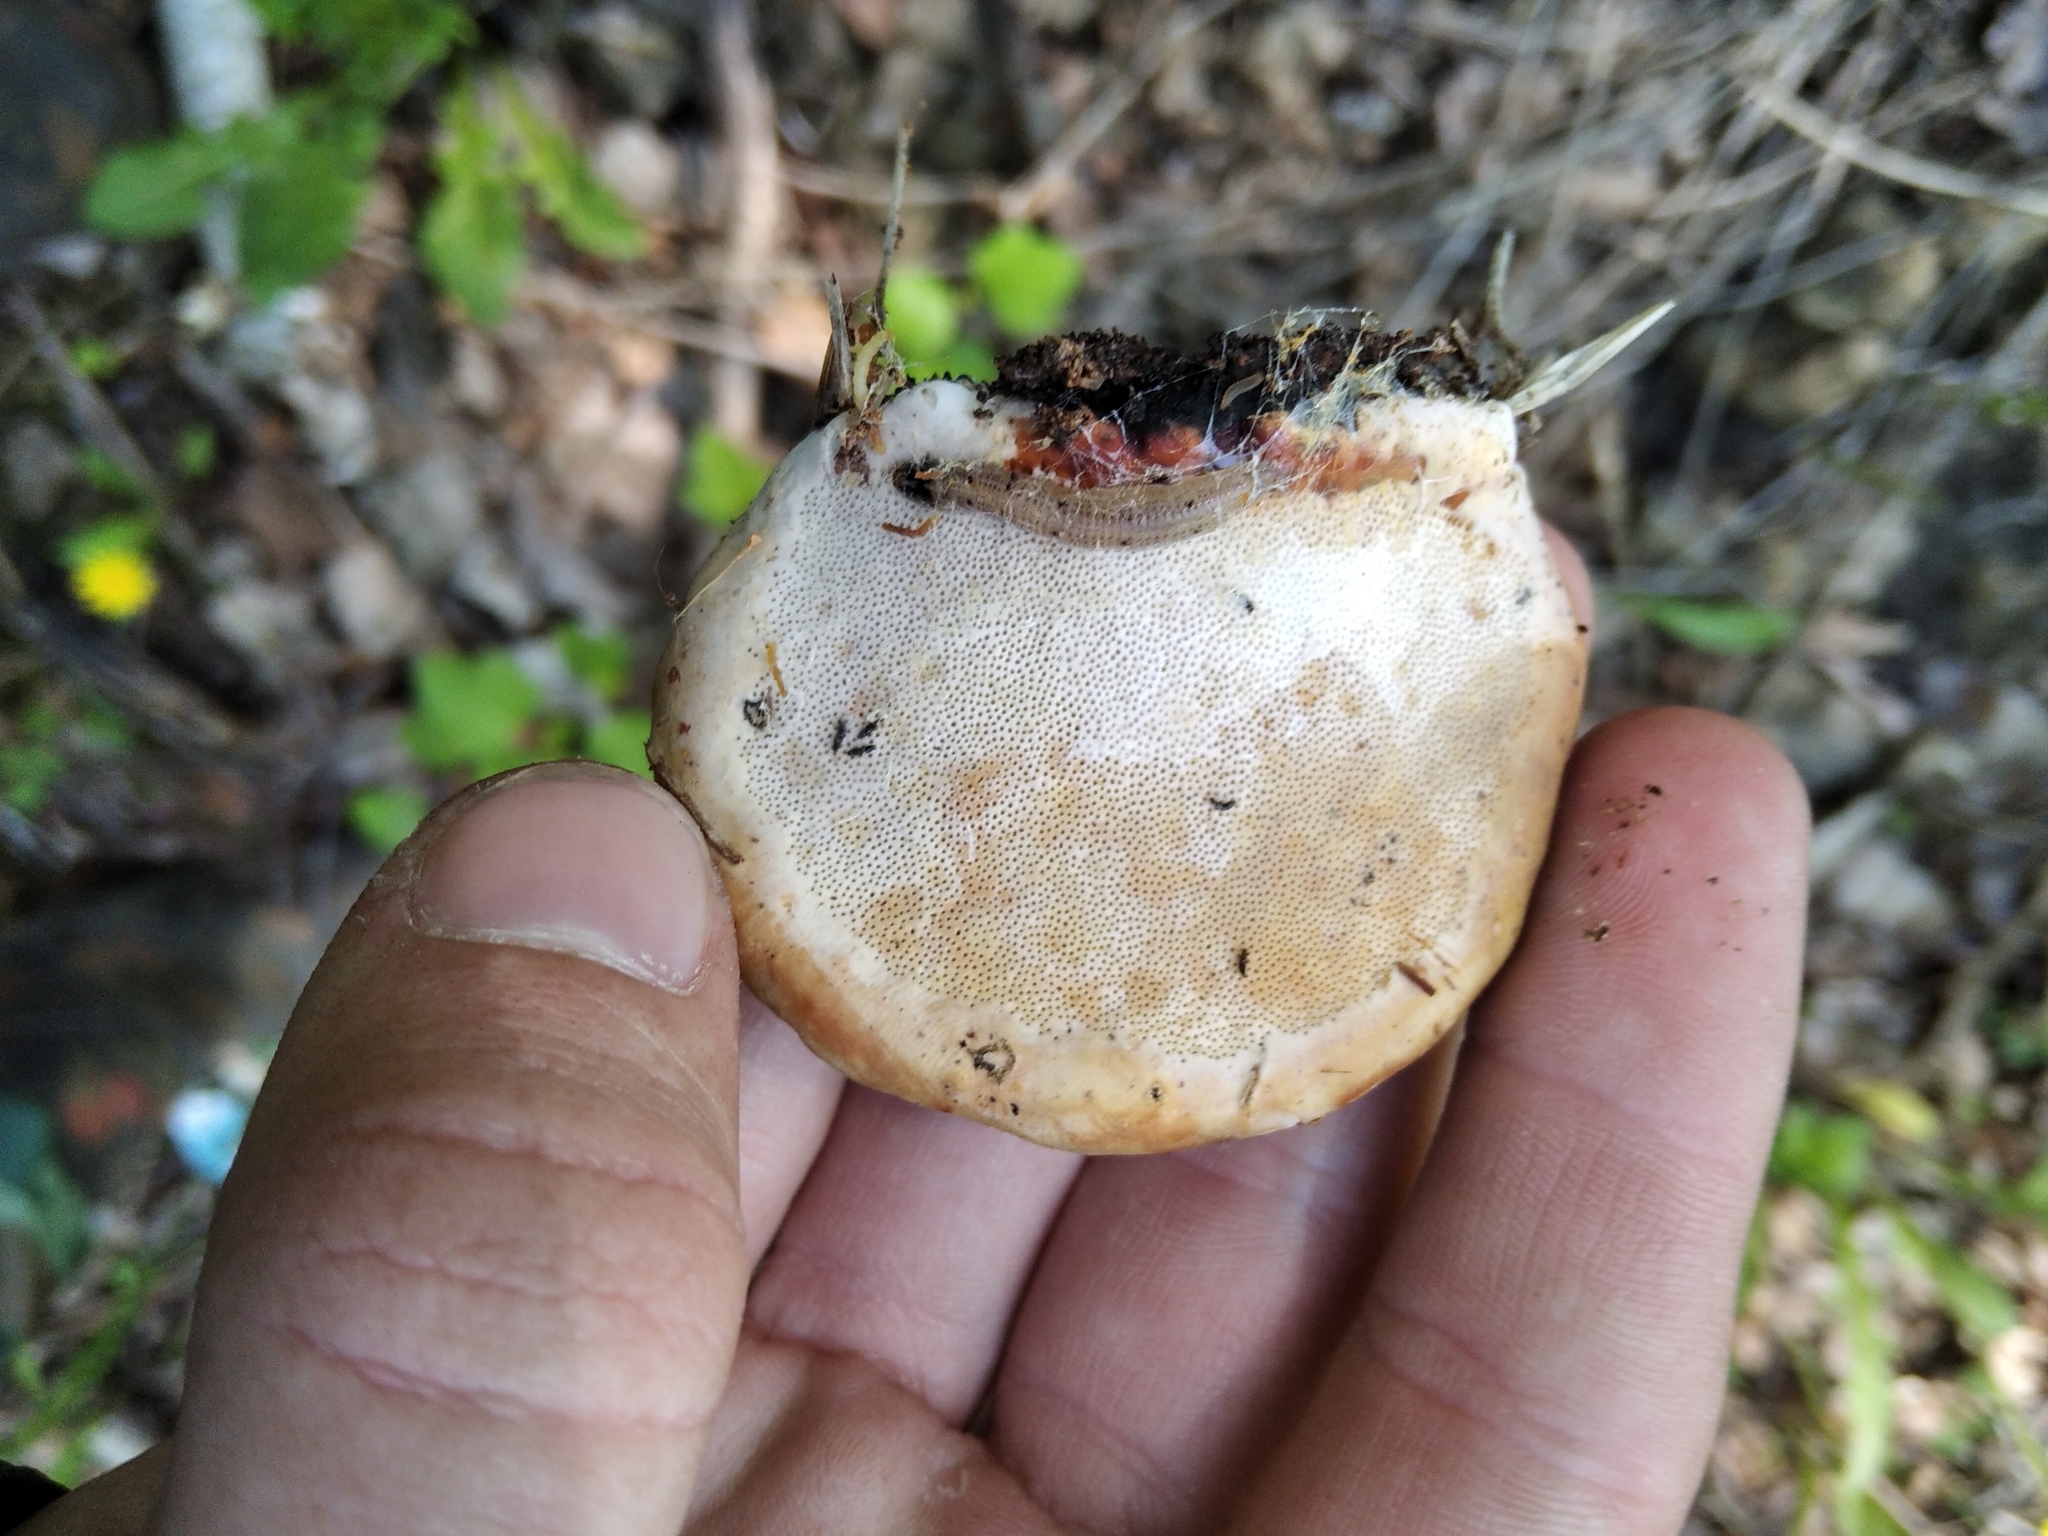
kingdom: Fungi
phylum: Basidiomycota
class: Agaricomycetes
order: Polyporales
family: Fomitopsidaceae
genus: Fomitopsis
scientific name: Fomitopsis pinicola
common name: Red-belted bracket
